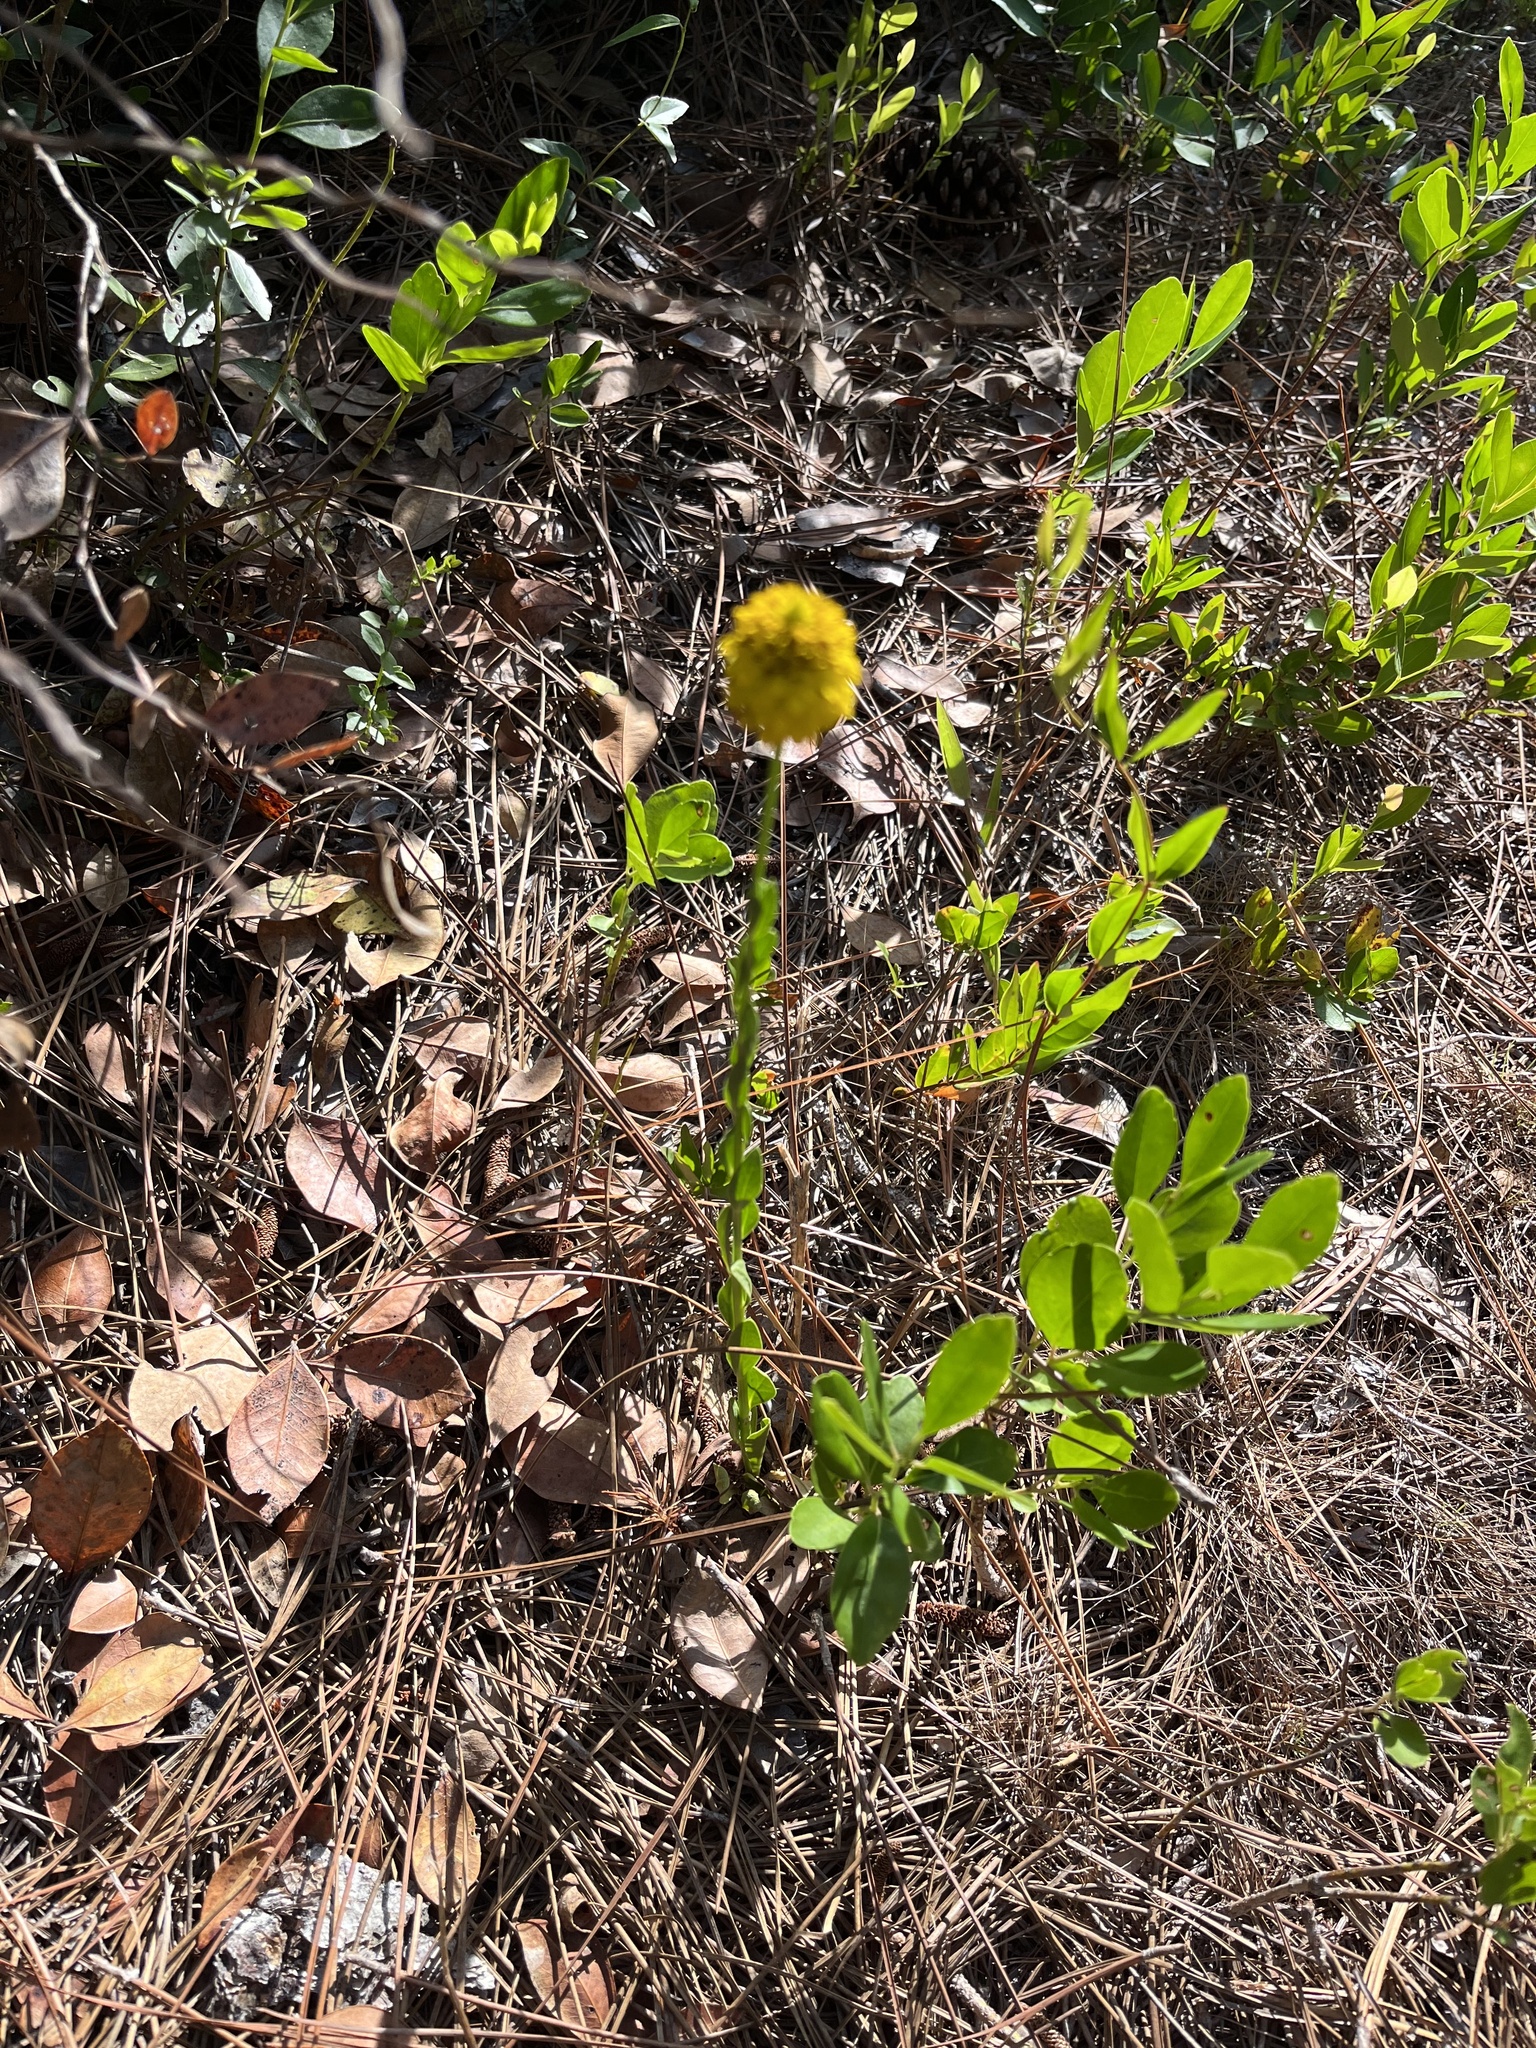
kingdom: Plantae
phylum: Tracheophyta
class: Magnoliopsida
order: Fabales
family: Polygalaceae
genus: Polygala
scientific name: Polygala rugelii
